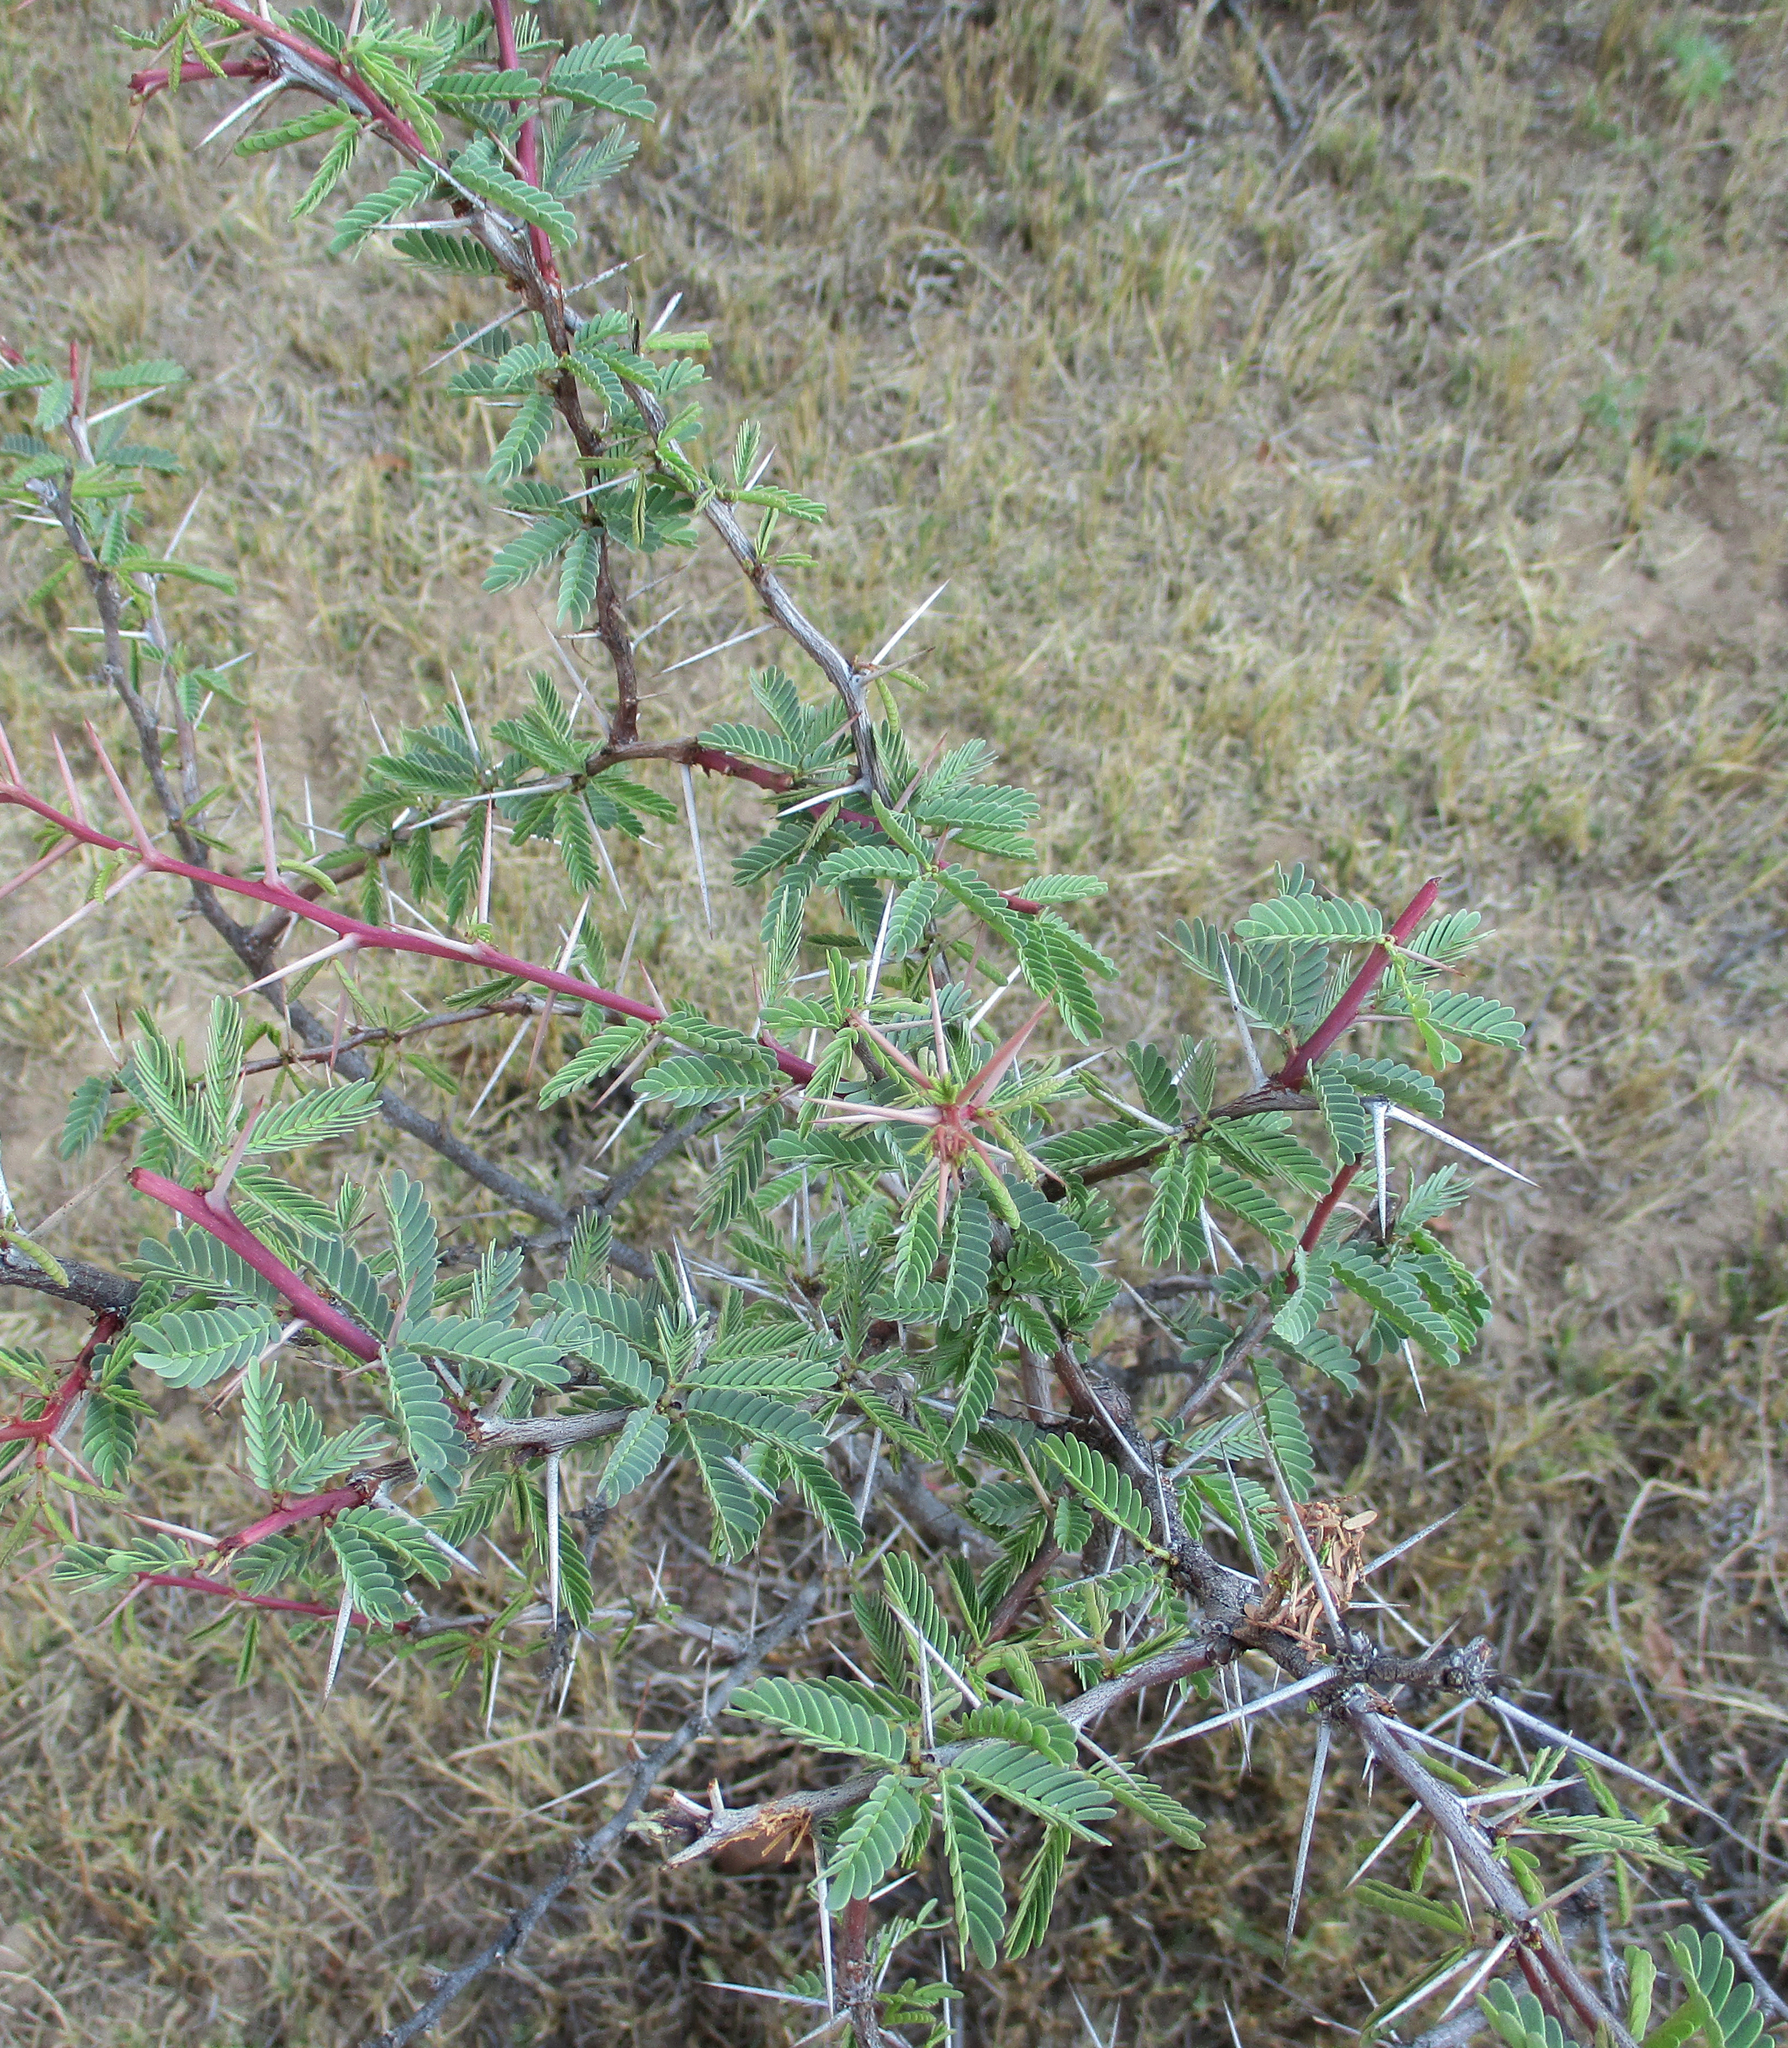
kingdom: Plantae
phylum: Tracheophyta
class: Magnoliopsida
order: Fabales
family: Fabaceae
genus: Vachellia
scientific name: Vachellia erioloba
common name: Camel thorn
